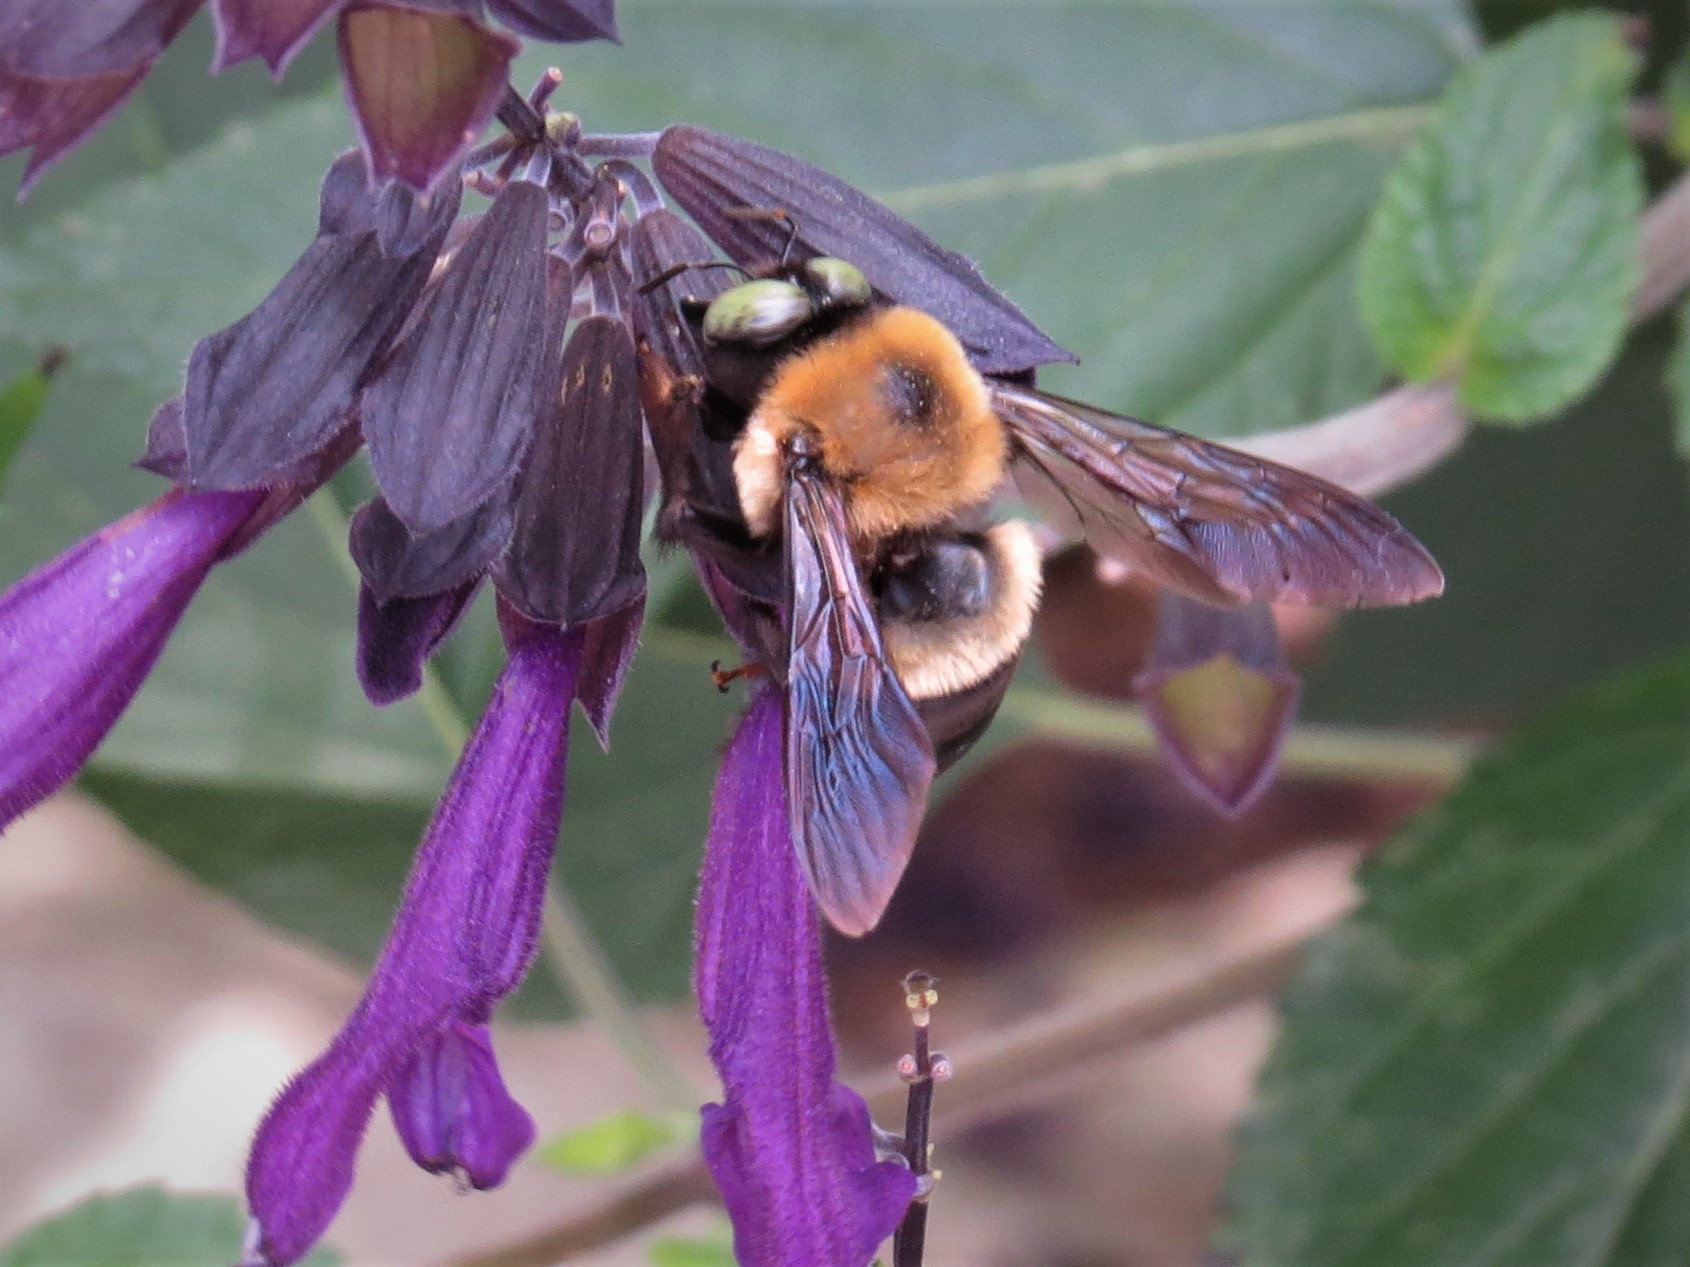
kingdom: Animalia
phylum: Arthropoda
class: Insecta
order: Hymenoptera
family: Apidae
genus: Xylocopa
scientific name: Xylocopa virginica
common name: Carpenter bee
